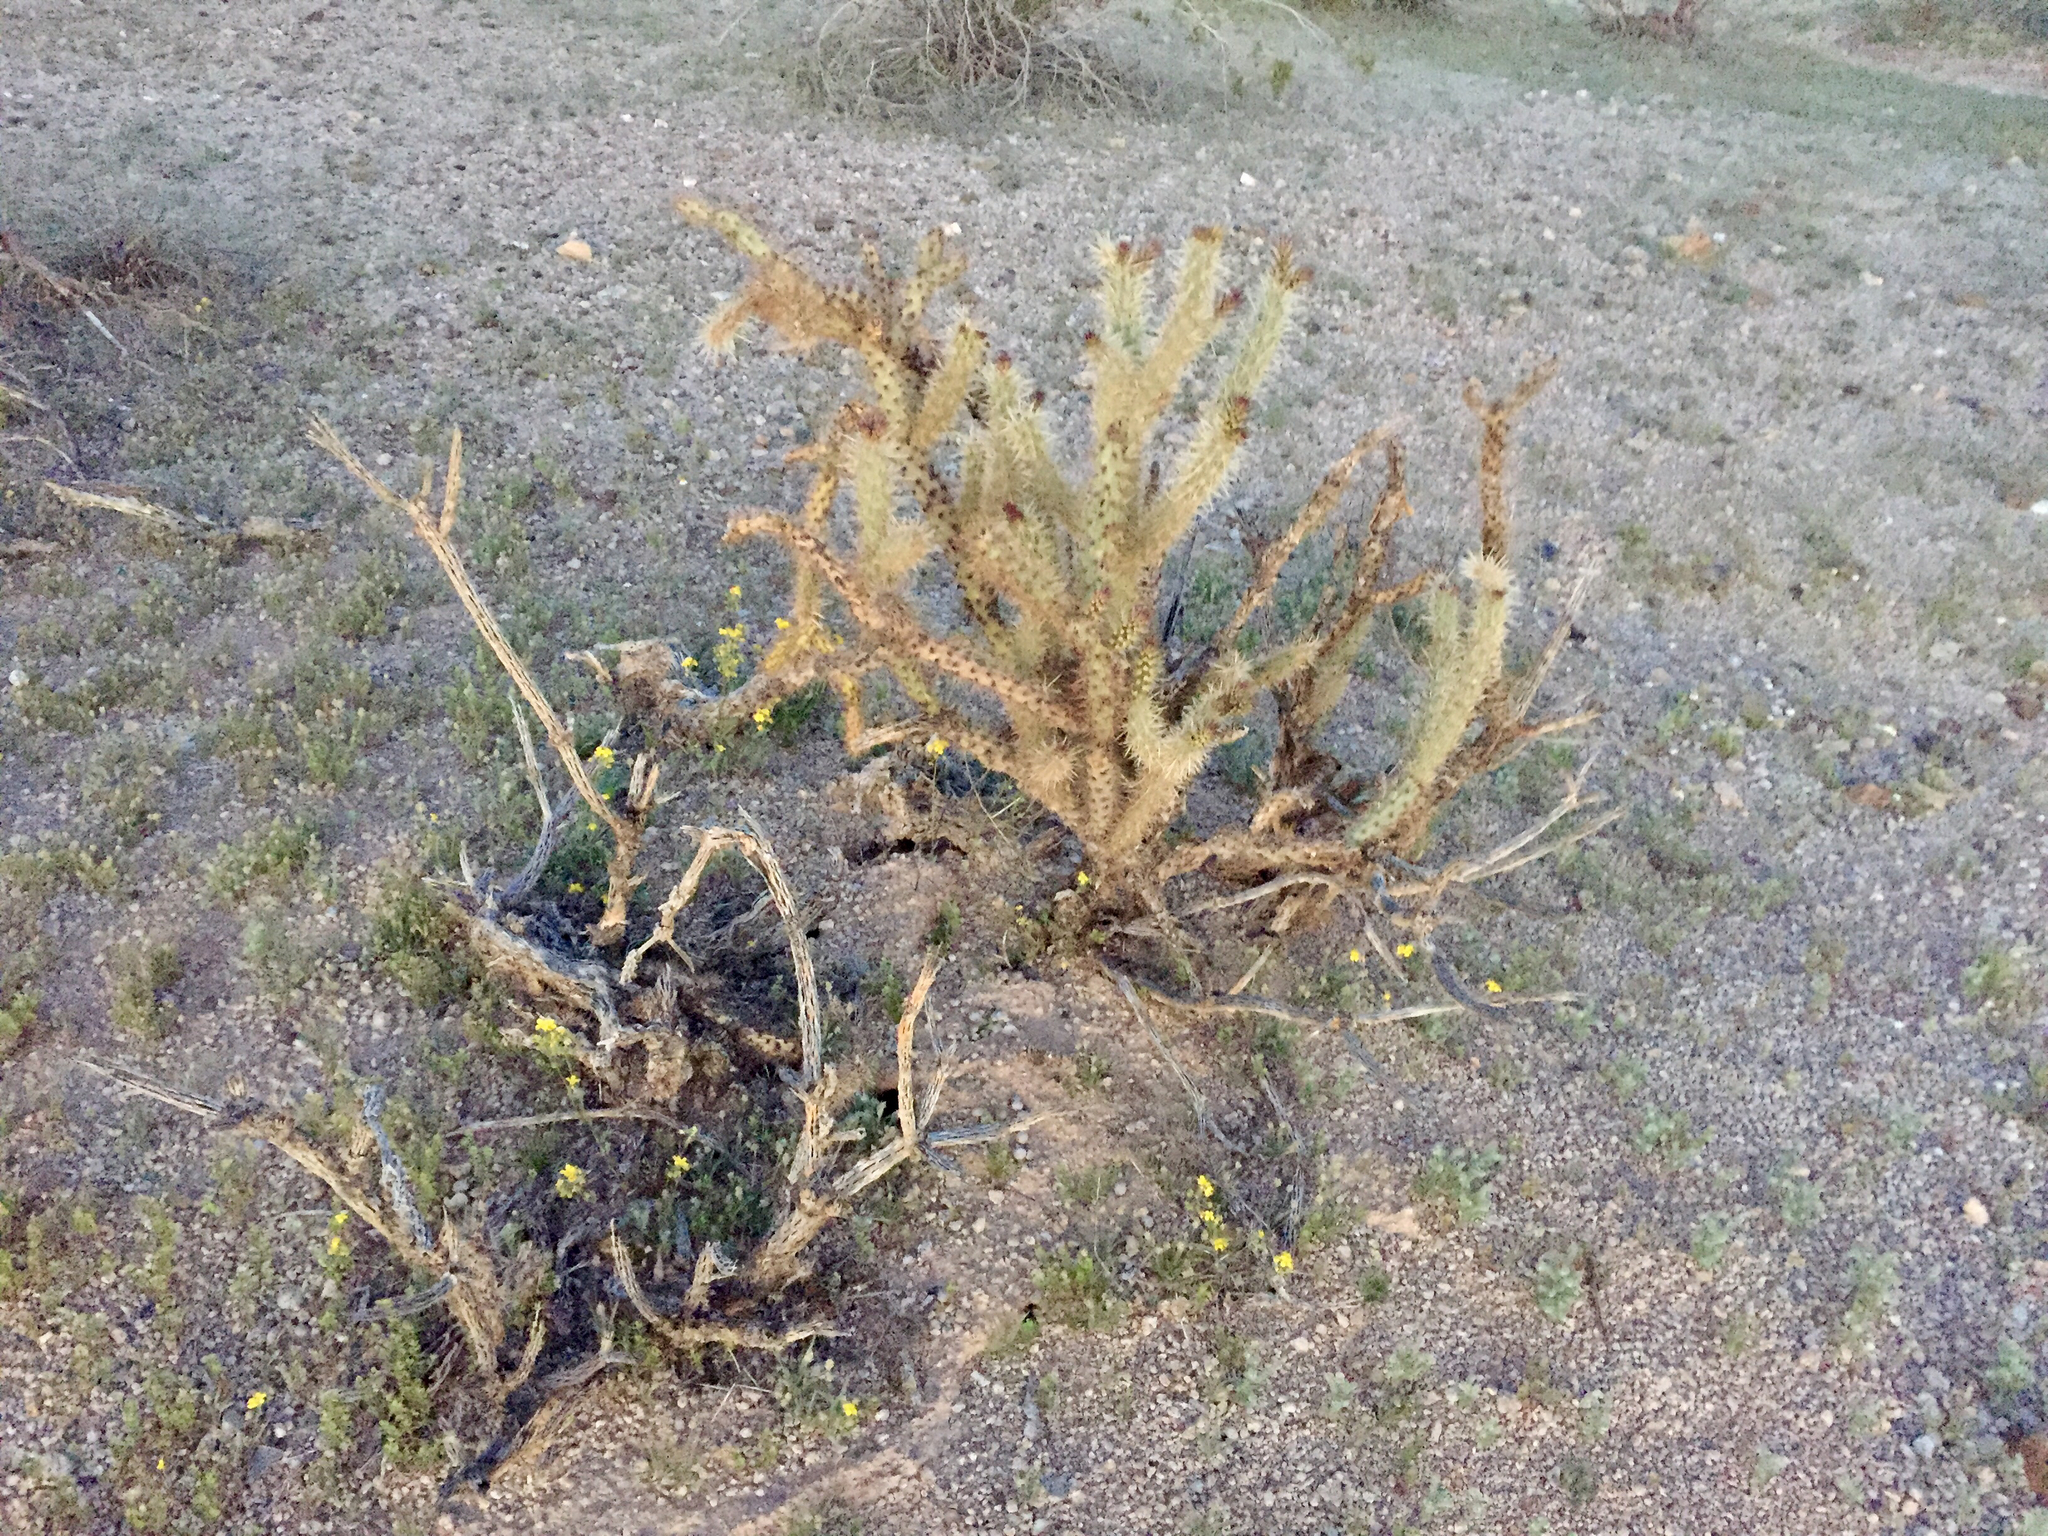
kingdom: Plantae
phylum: Tracheophyta
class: Magnoliopsida
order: Caryophyllales
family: Cactaceae
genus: Cylindropuntia
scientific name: Cylindropuntia acanthocarpa
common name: Buckhorn cholla
